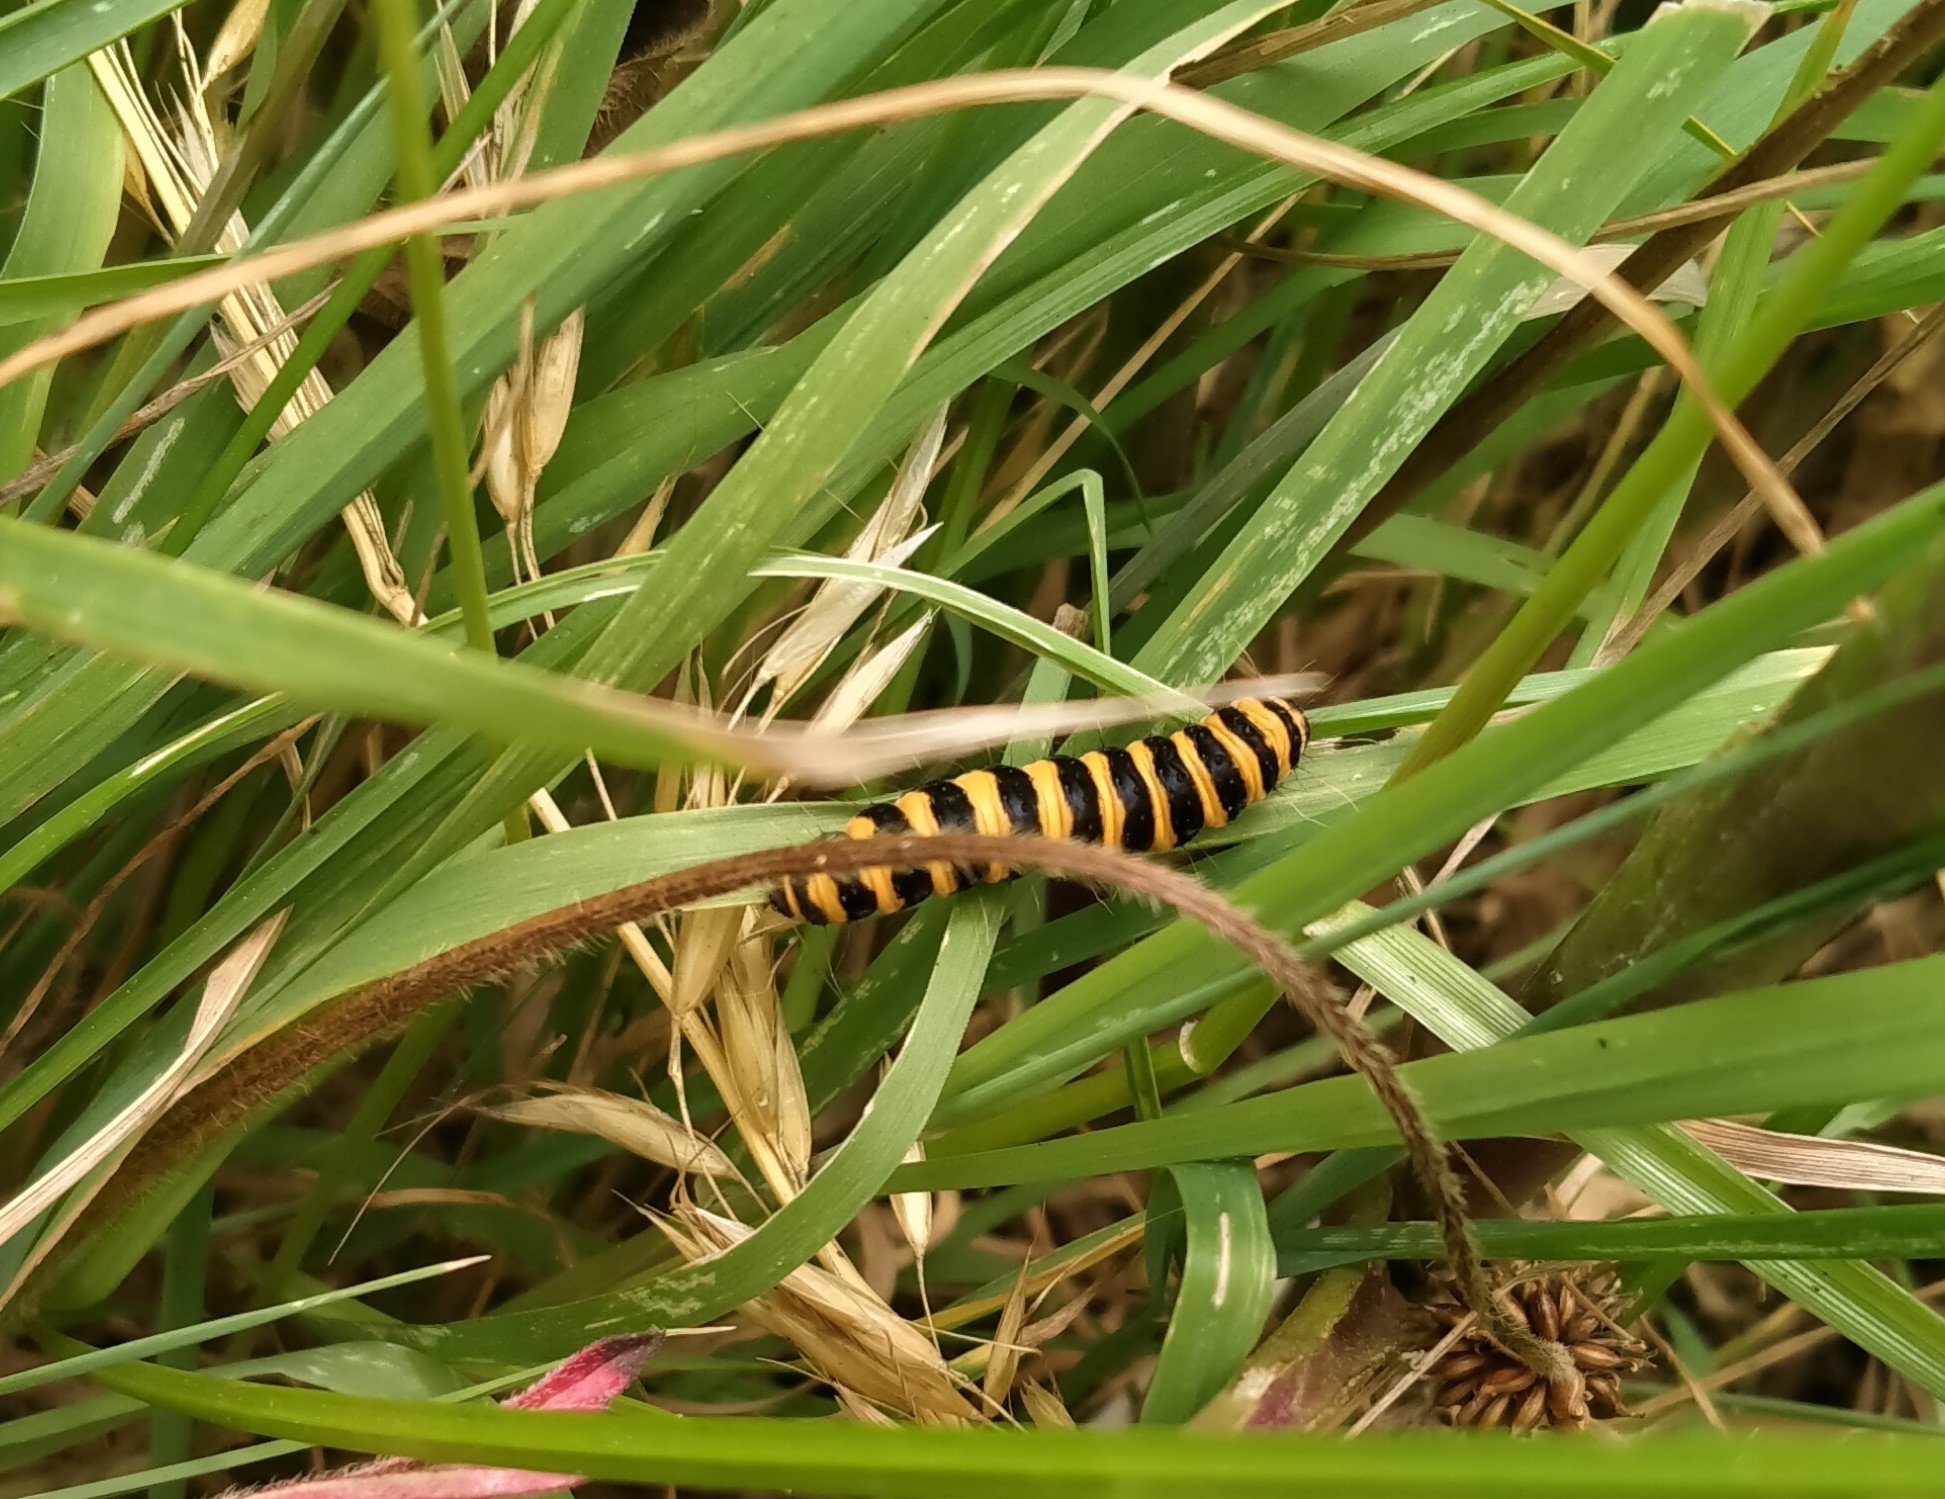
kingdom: Animalia
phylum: Arthropoda
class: Insecta
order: Lepidoptera
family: Erebidae
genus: Tyria
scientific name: Tyria jacobaeae
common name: Cinnabar
